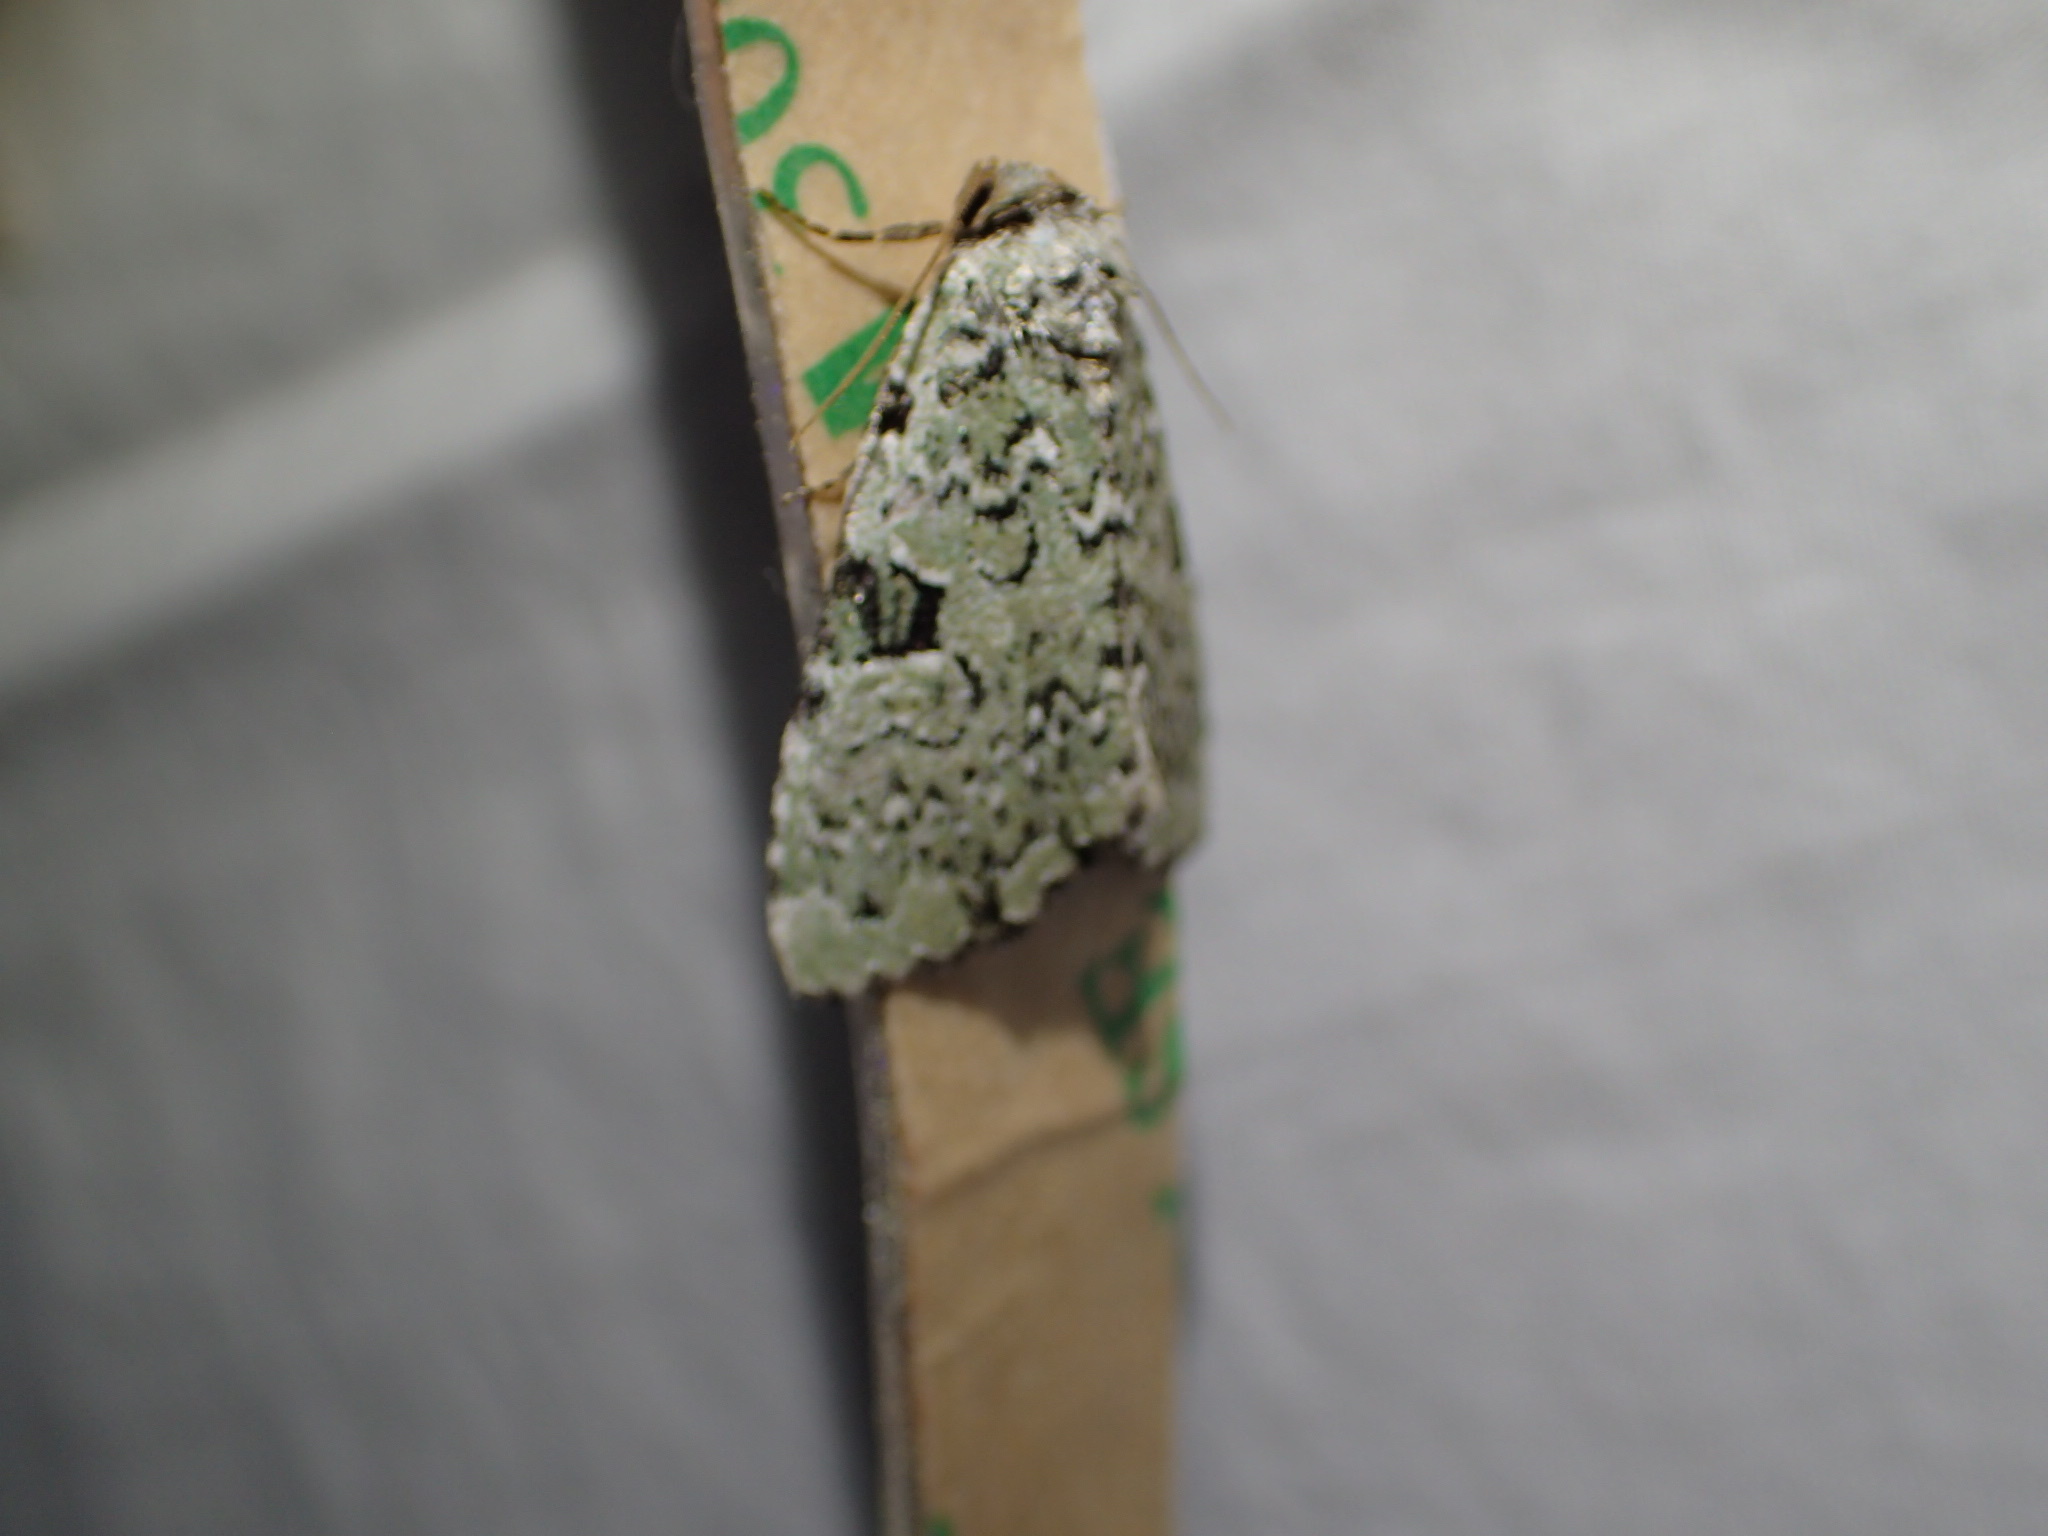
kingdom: Animalia
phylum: Arthropoda
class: Insecta
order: Lepidoptera
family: Noctuidae
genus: Leuconycta
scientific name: Leuconycta diphteroides
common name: Green leuconycta moth
